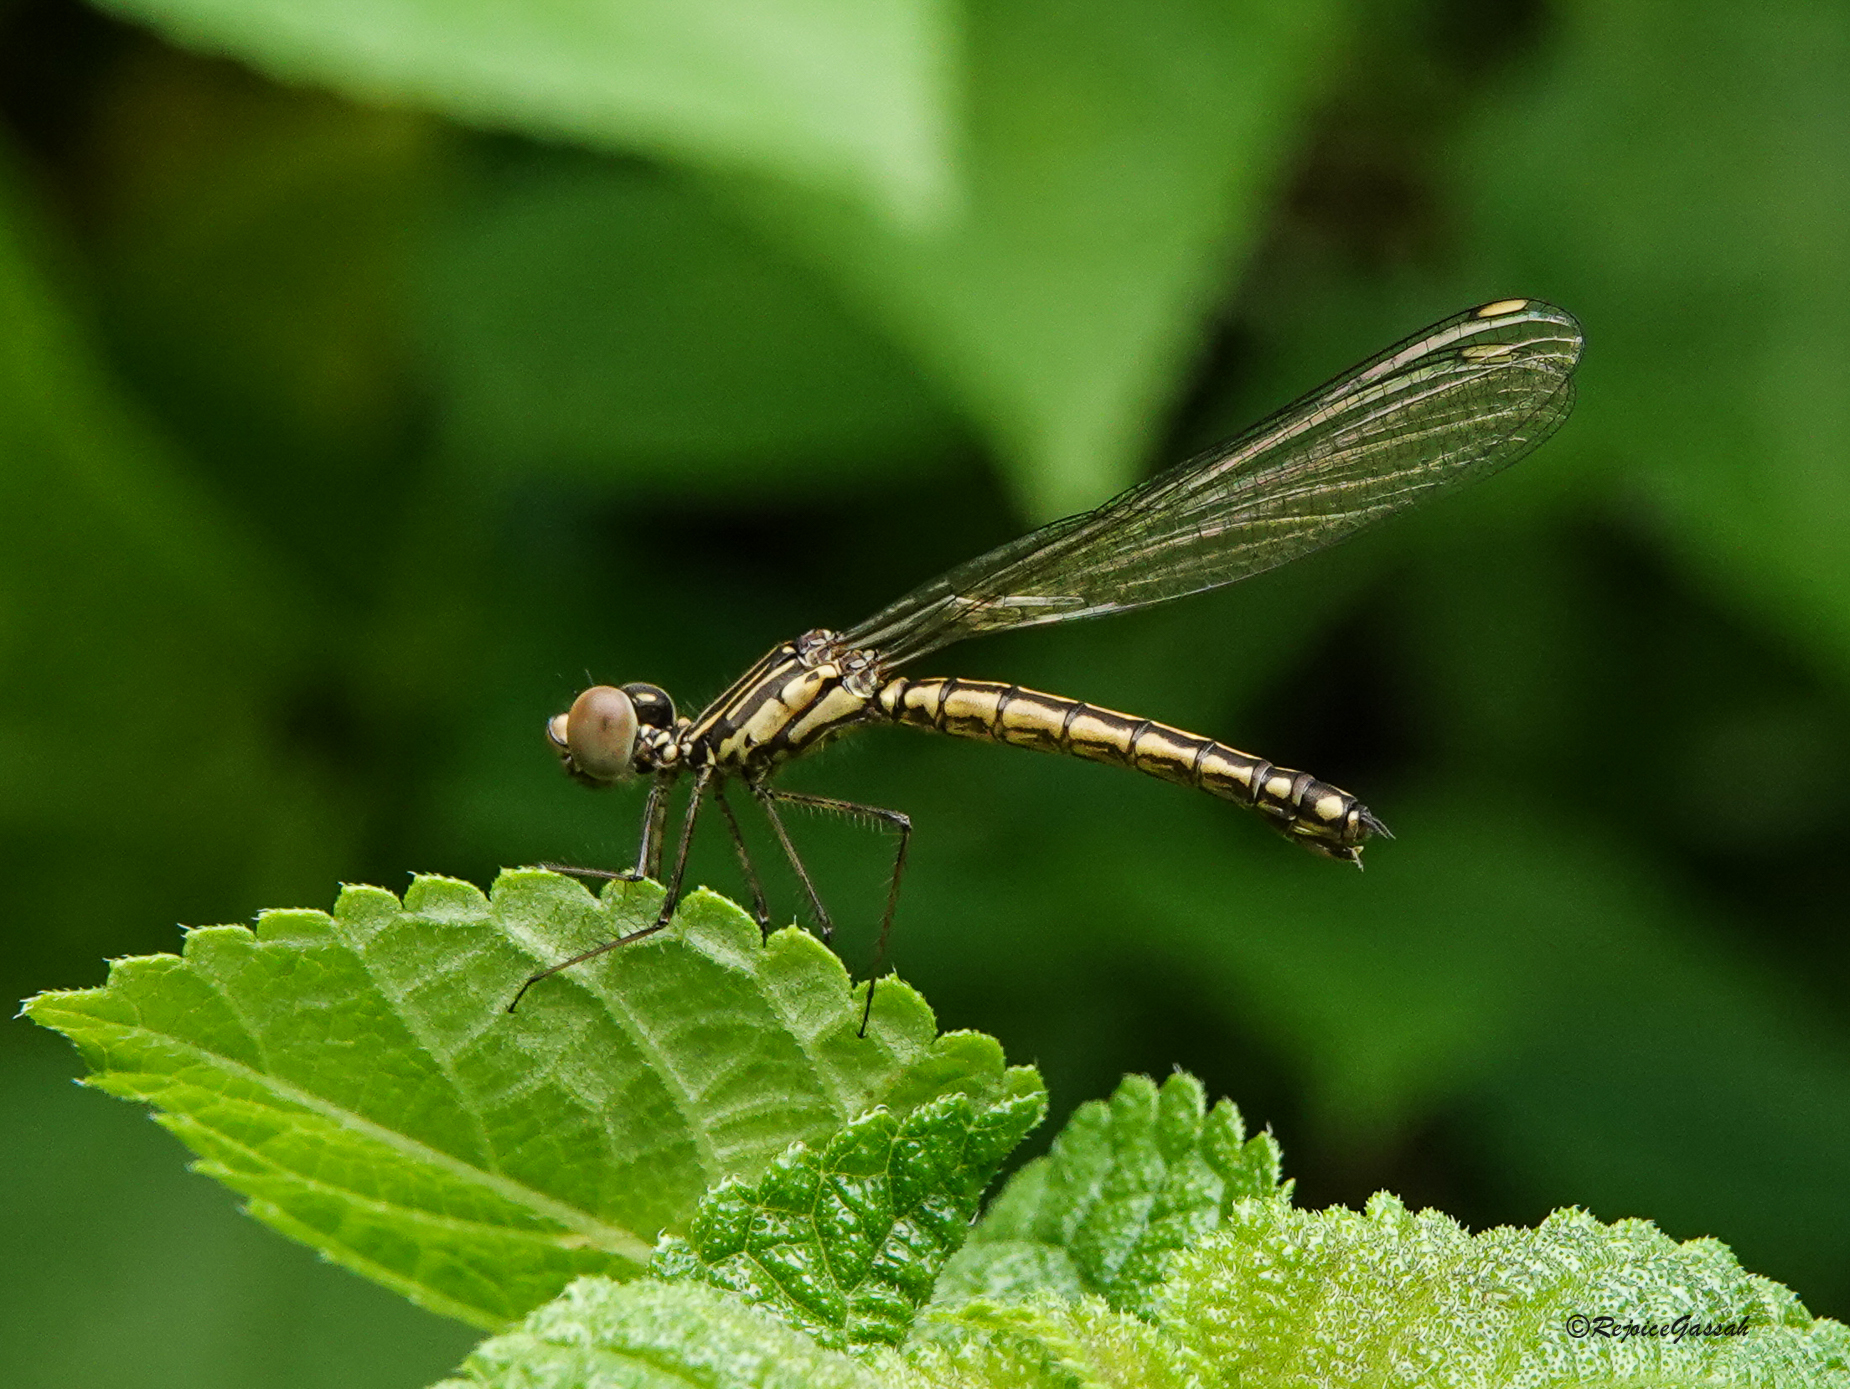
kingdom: Animalia
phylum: Arthropoda
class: Insecta
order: Odonata
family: Chlorocyphidae
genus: Libellago
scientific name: Libellago lineata
